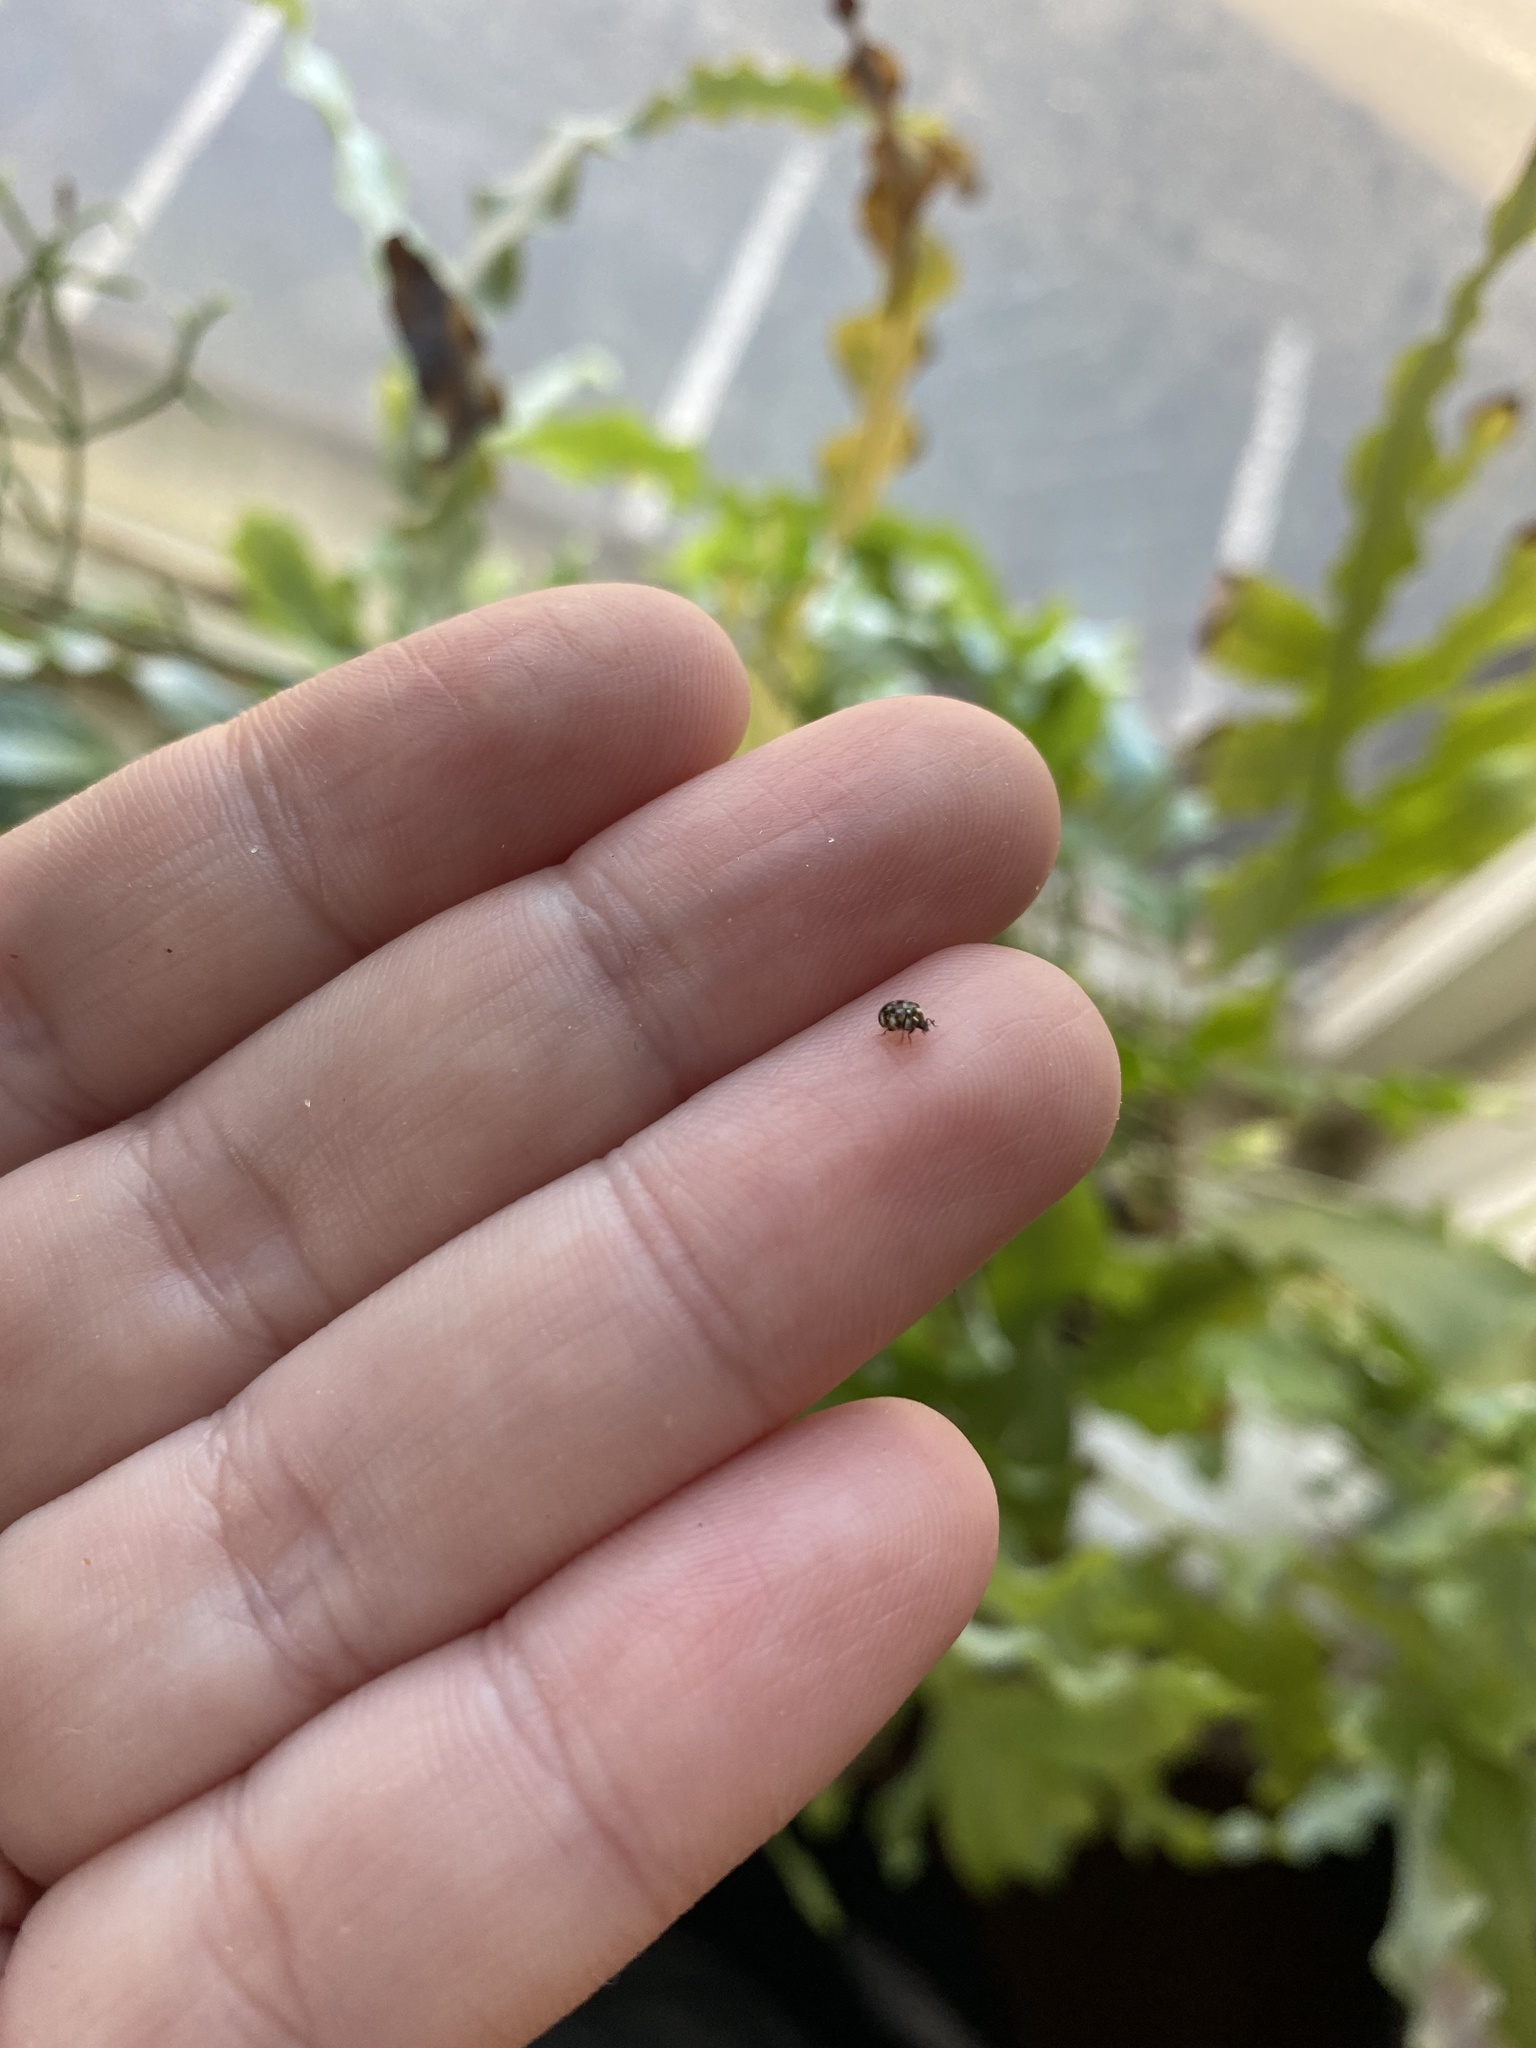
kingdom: Animalia
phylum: Arthropoda
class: Insecta
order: Coleoptera
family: Dermestidae
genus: Anthrenus
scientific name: Anthrenus verbasci
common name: Varied carpet beetle
